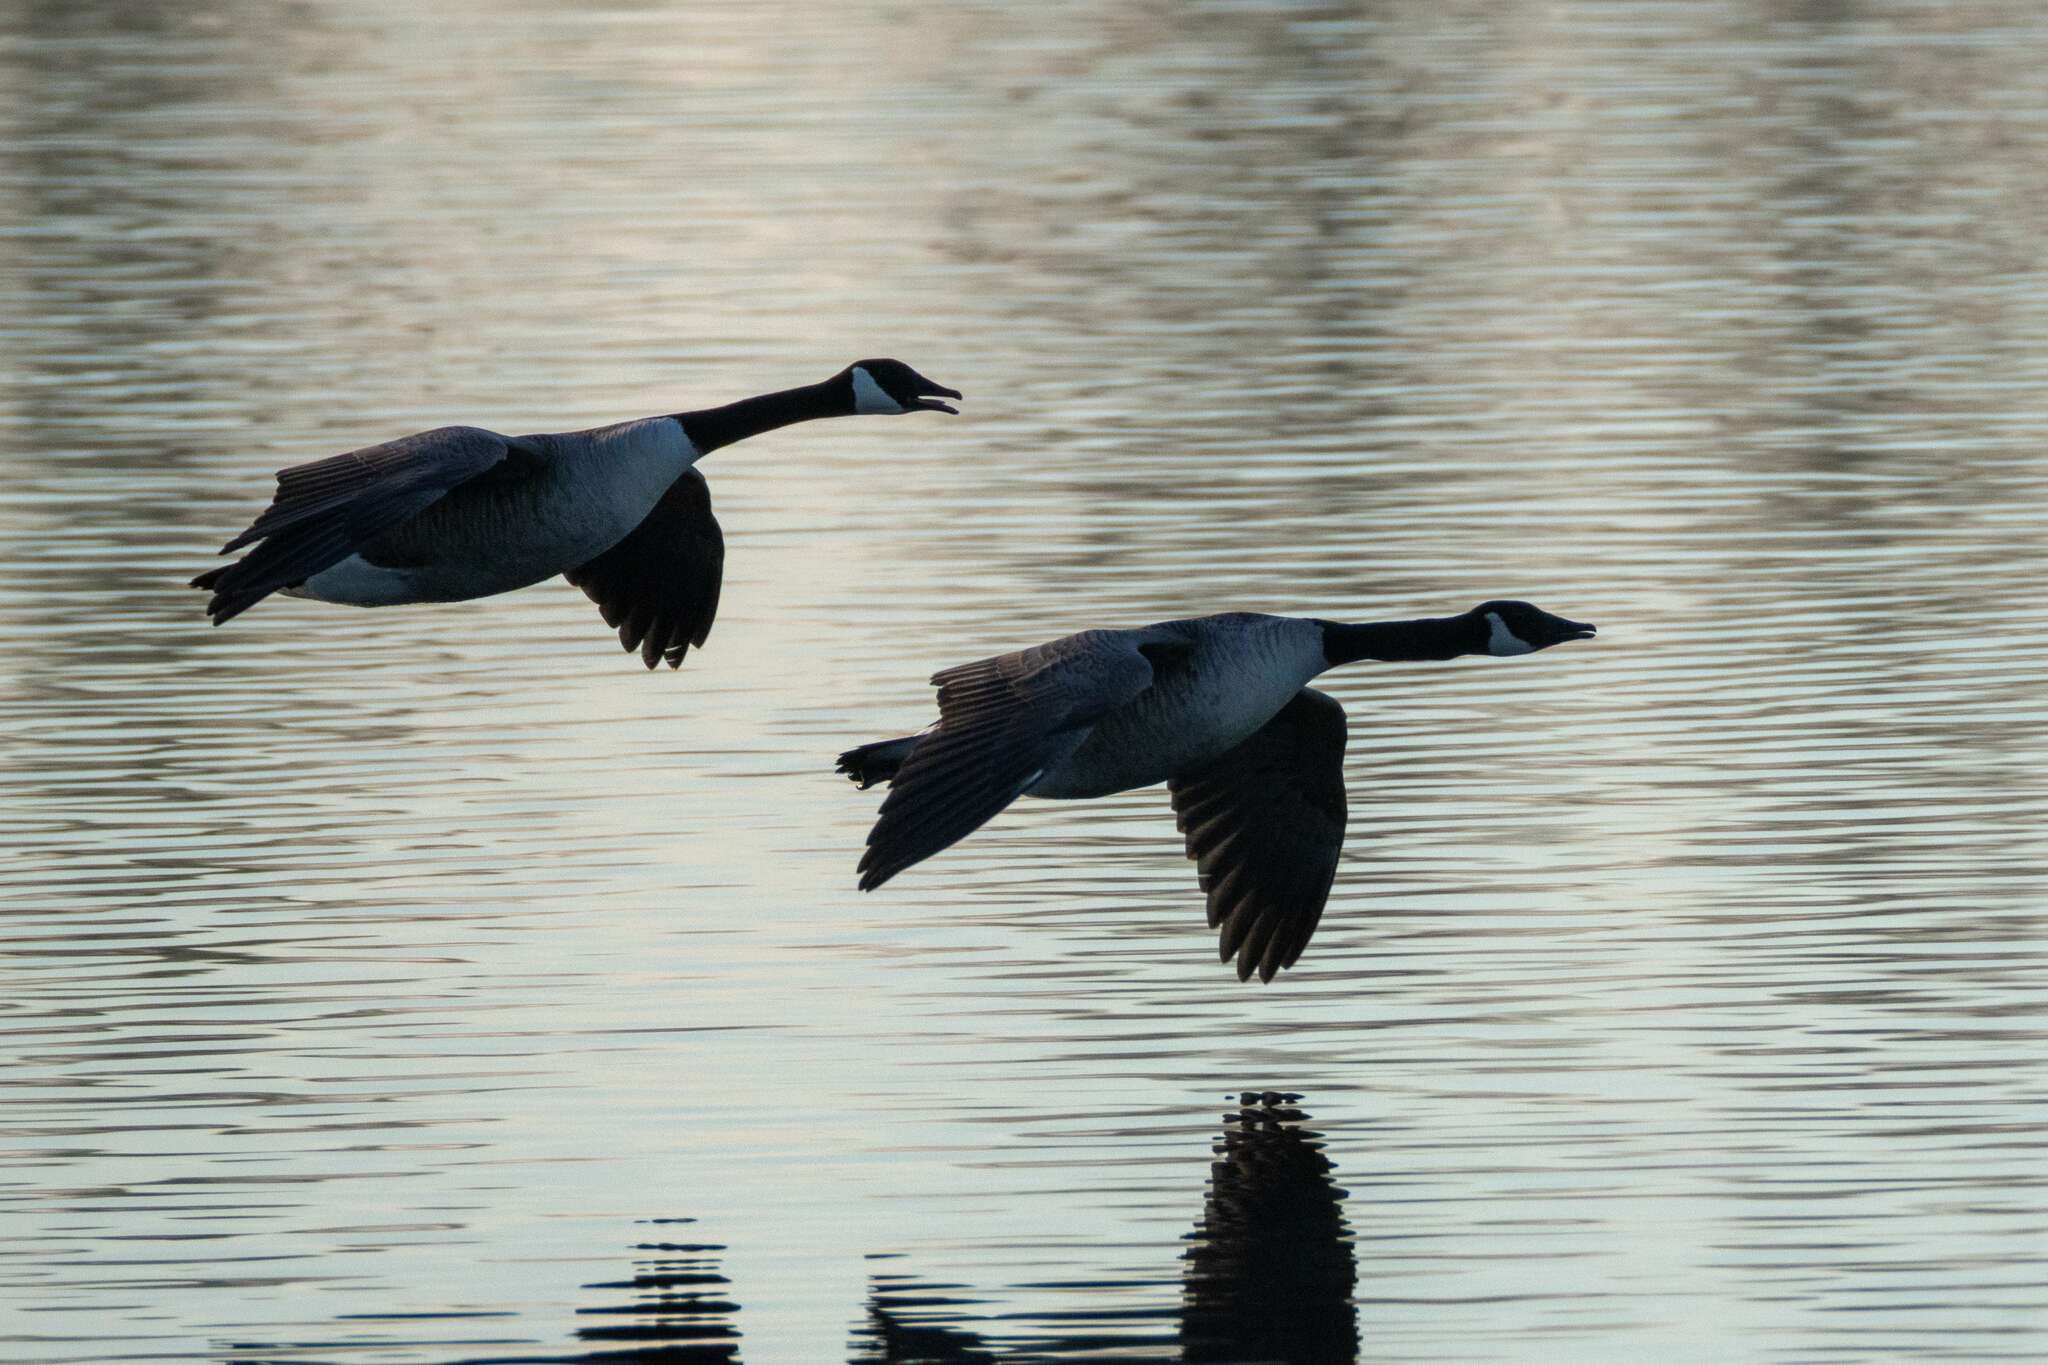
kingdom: Animalia
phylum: Chordata
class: Aves
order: Anseriformes
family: Anatidae
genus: Branta
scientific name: Branta canadensis
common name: Canada goose
